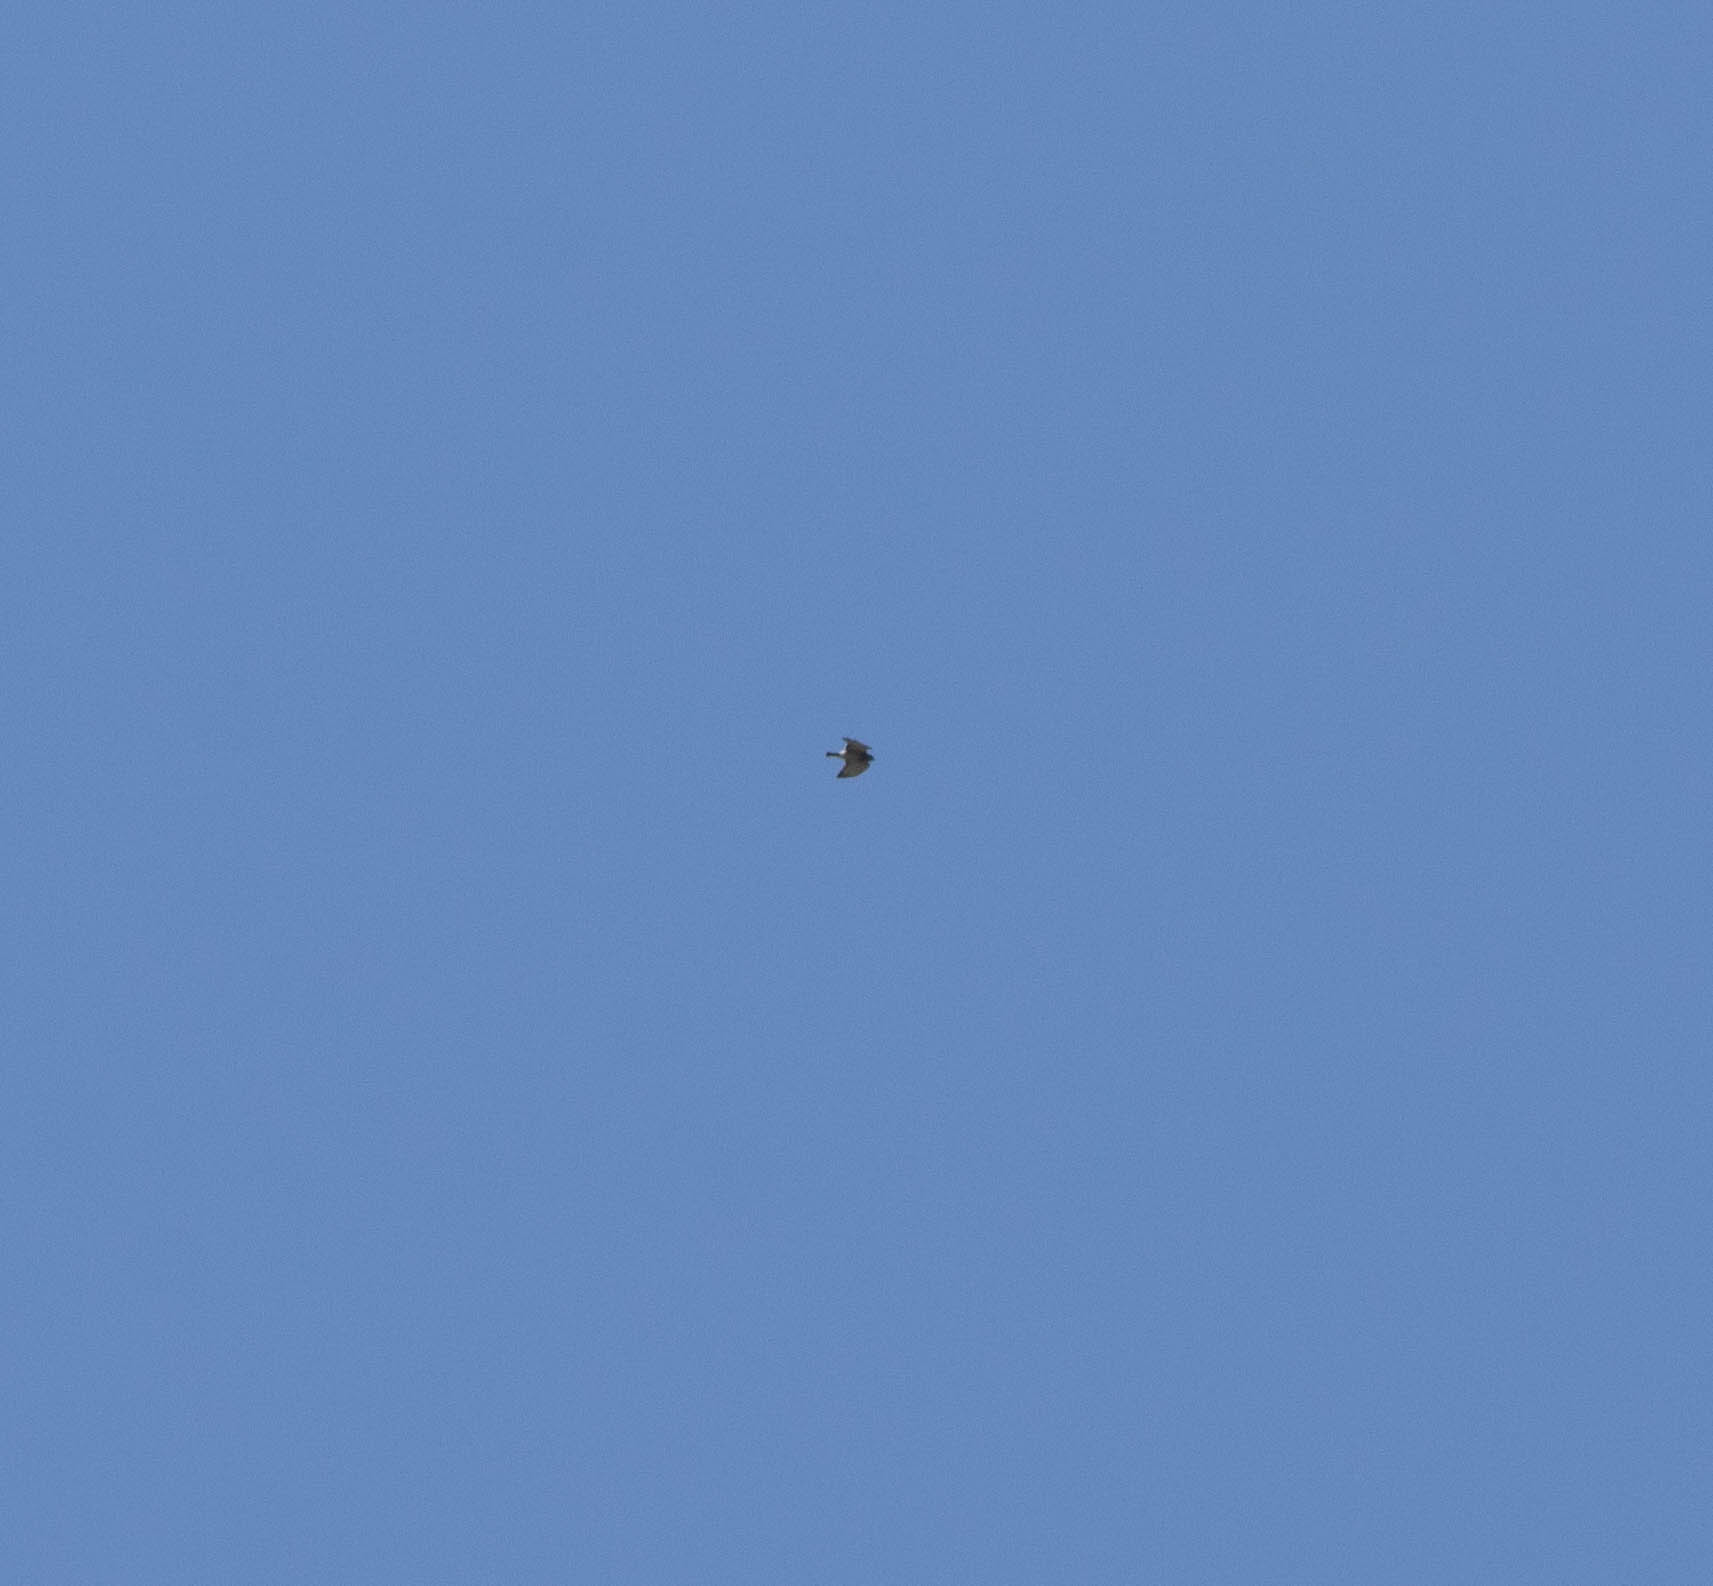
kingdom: Animalia
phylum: Chordata
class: Aves
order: Accipitriformes
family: Accipitridae
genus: Buteo
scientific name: Buteo platypterus
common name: Broad-winged hawk
